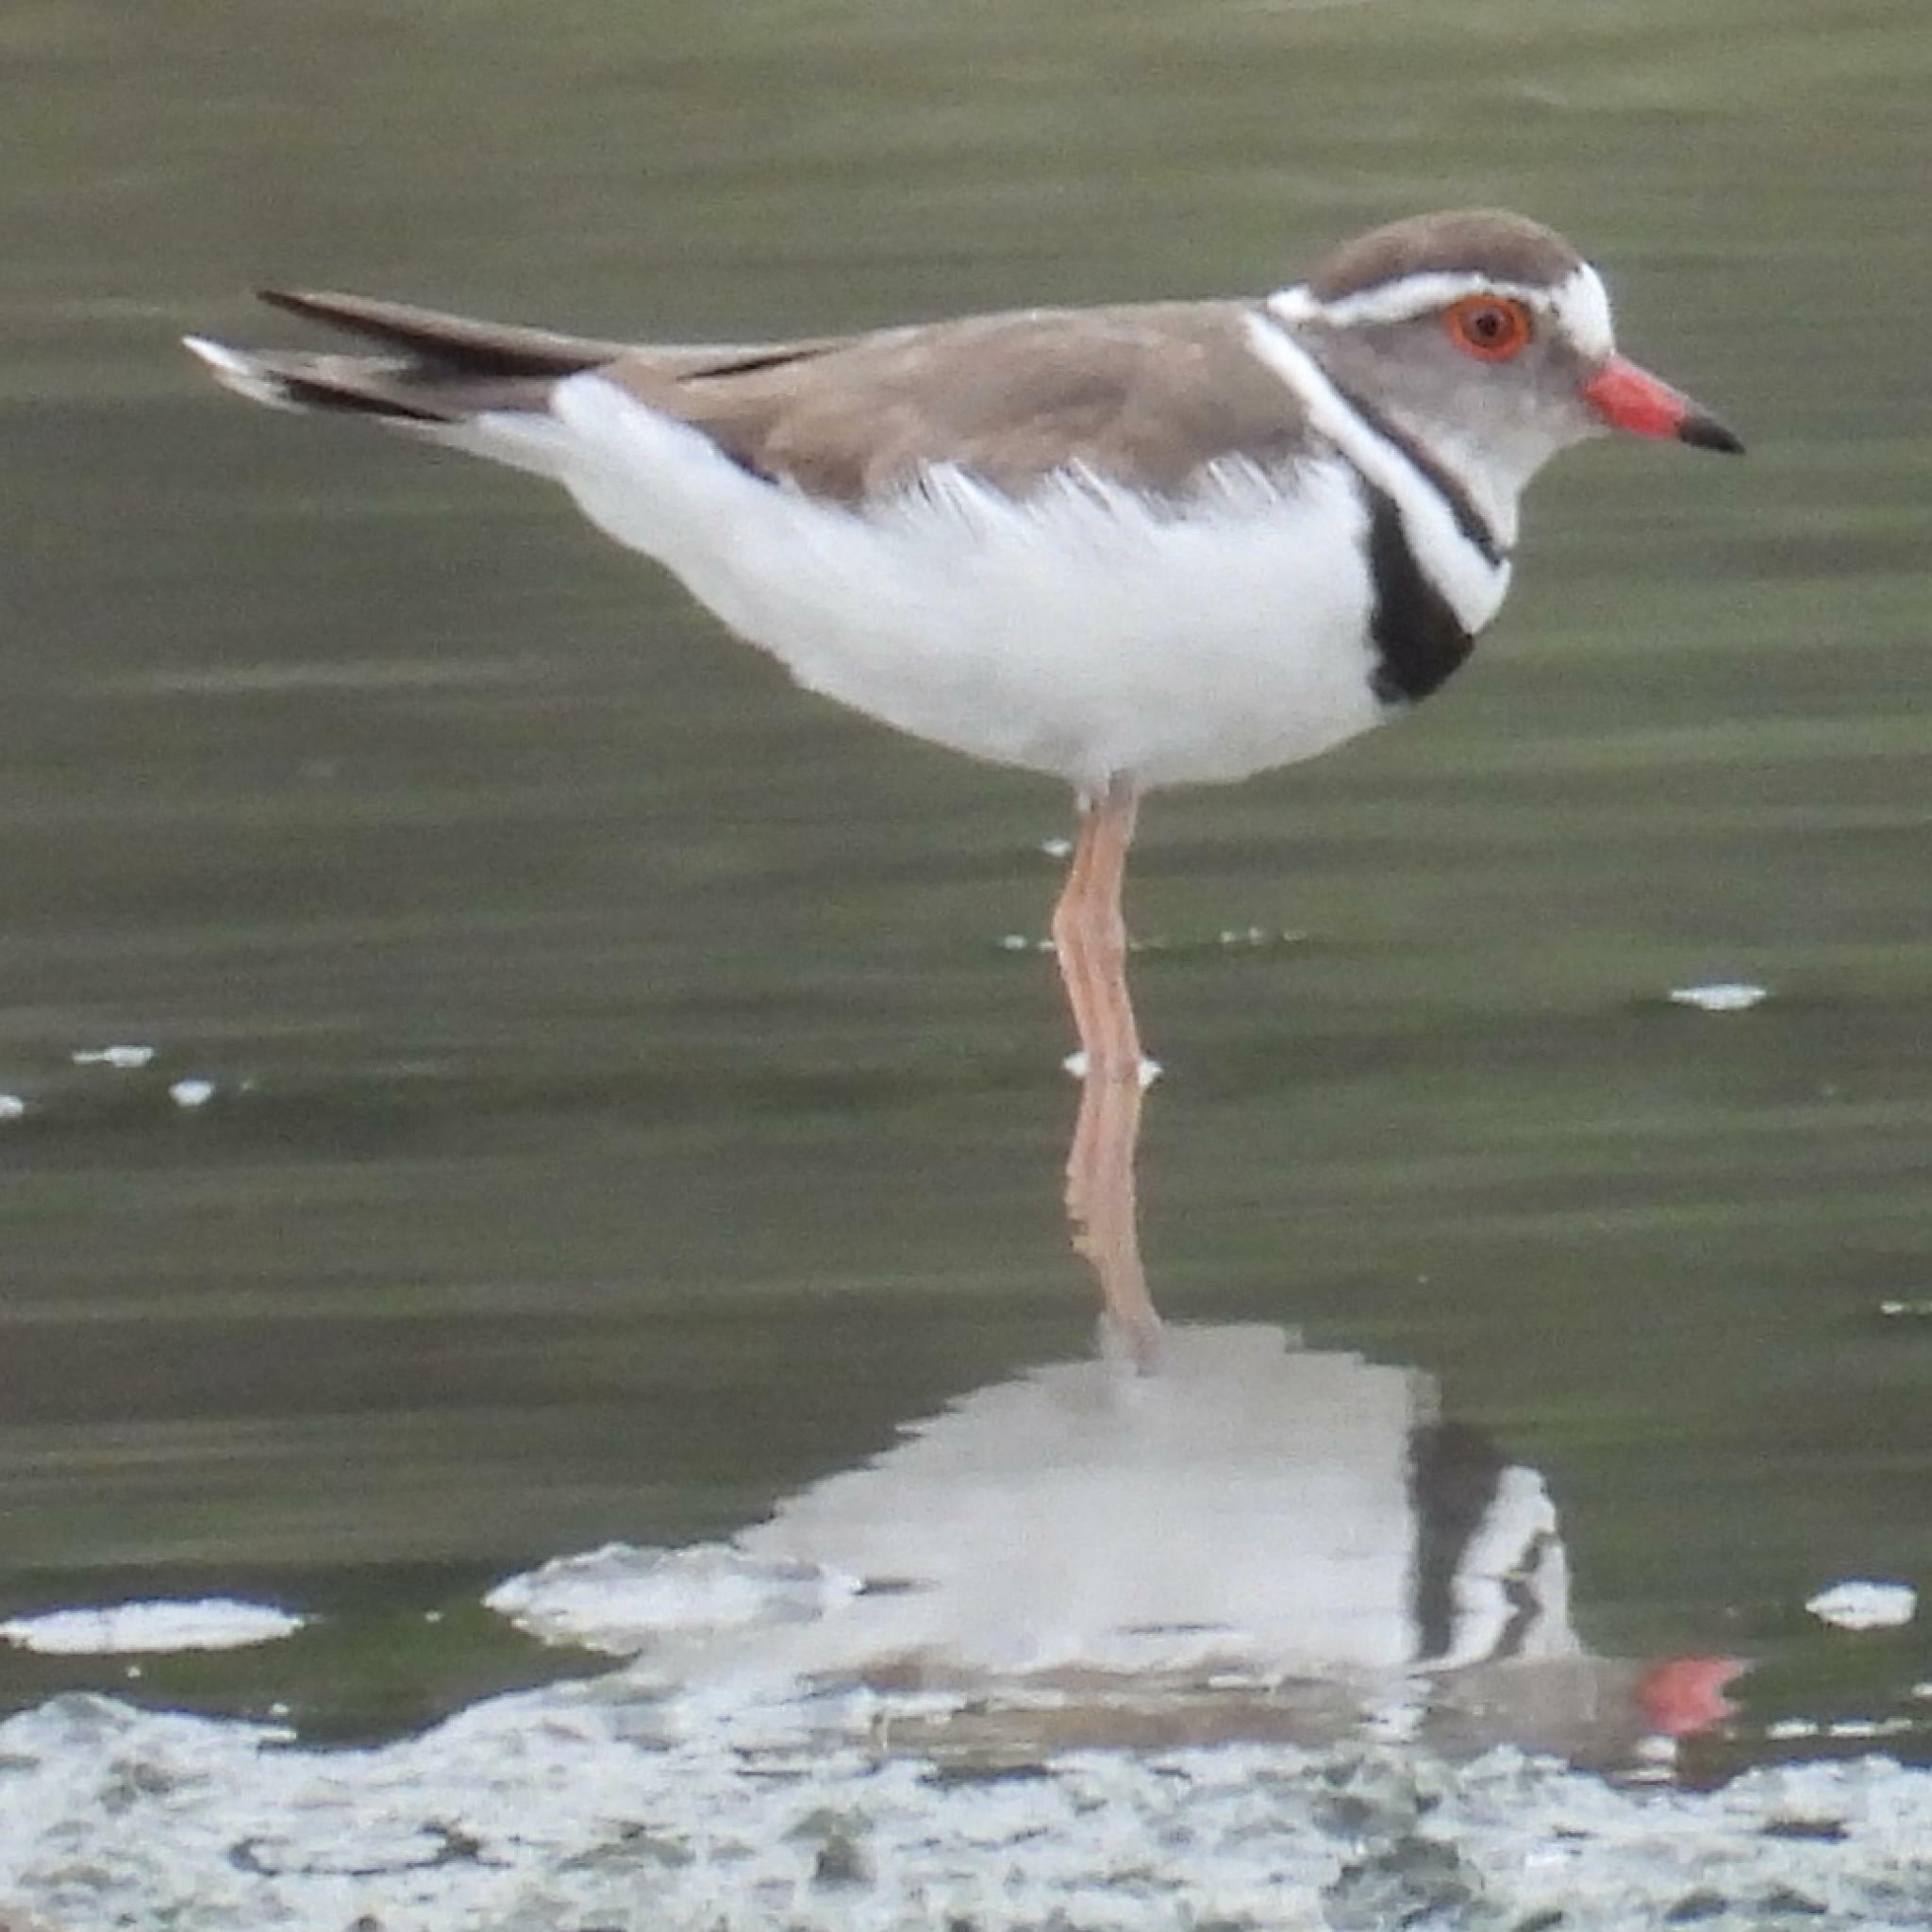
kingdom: Animalia
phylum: Chordata
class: Aves
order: Charadriiformes
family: Charadriidae
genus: Charadrius
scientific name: Charadrius tricollaris
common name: Three-banded plover
